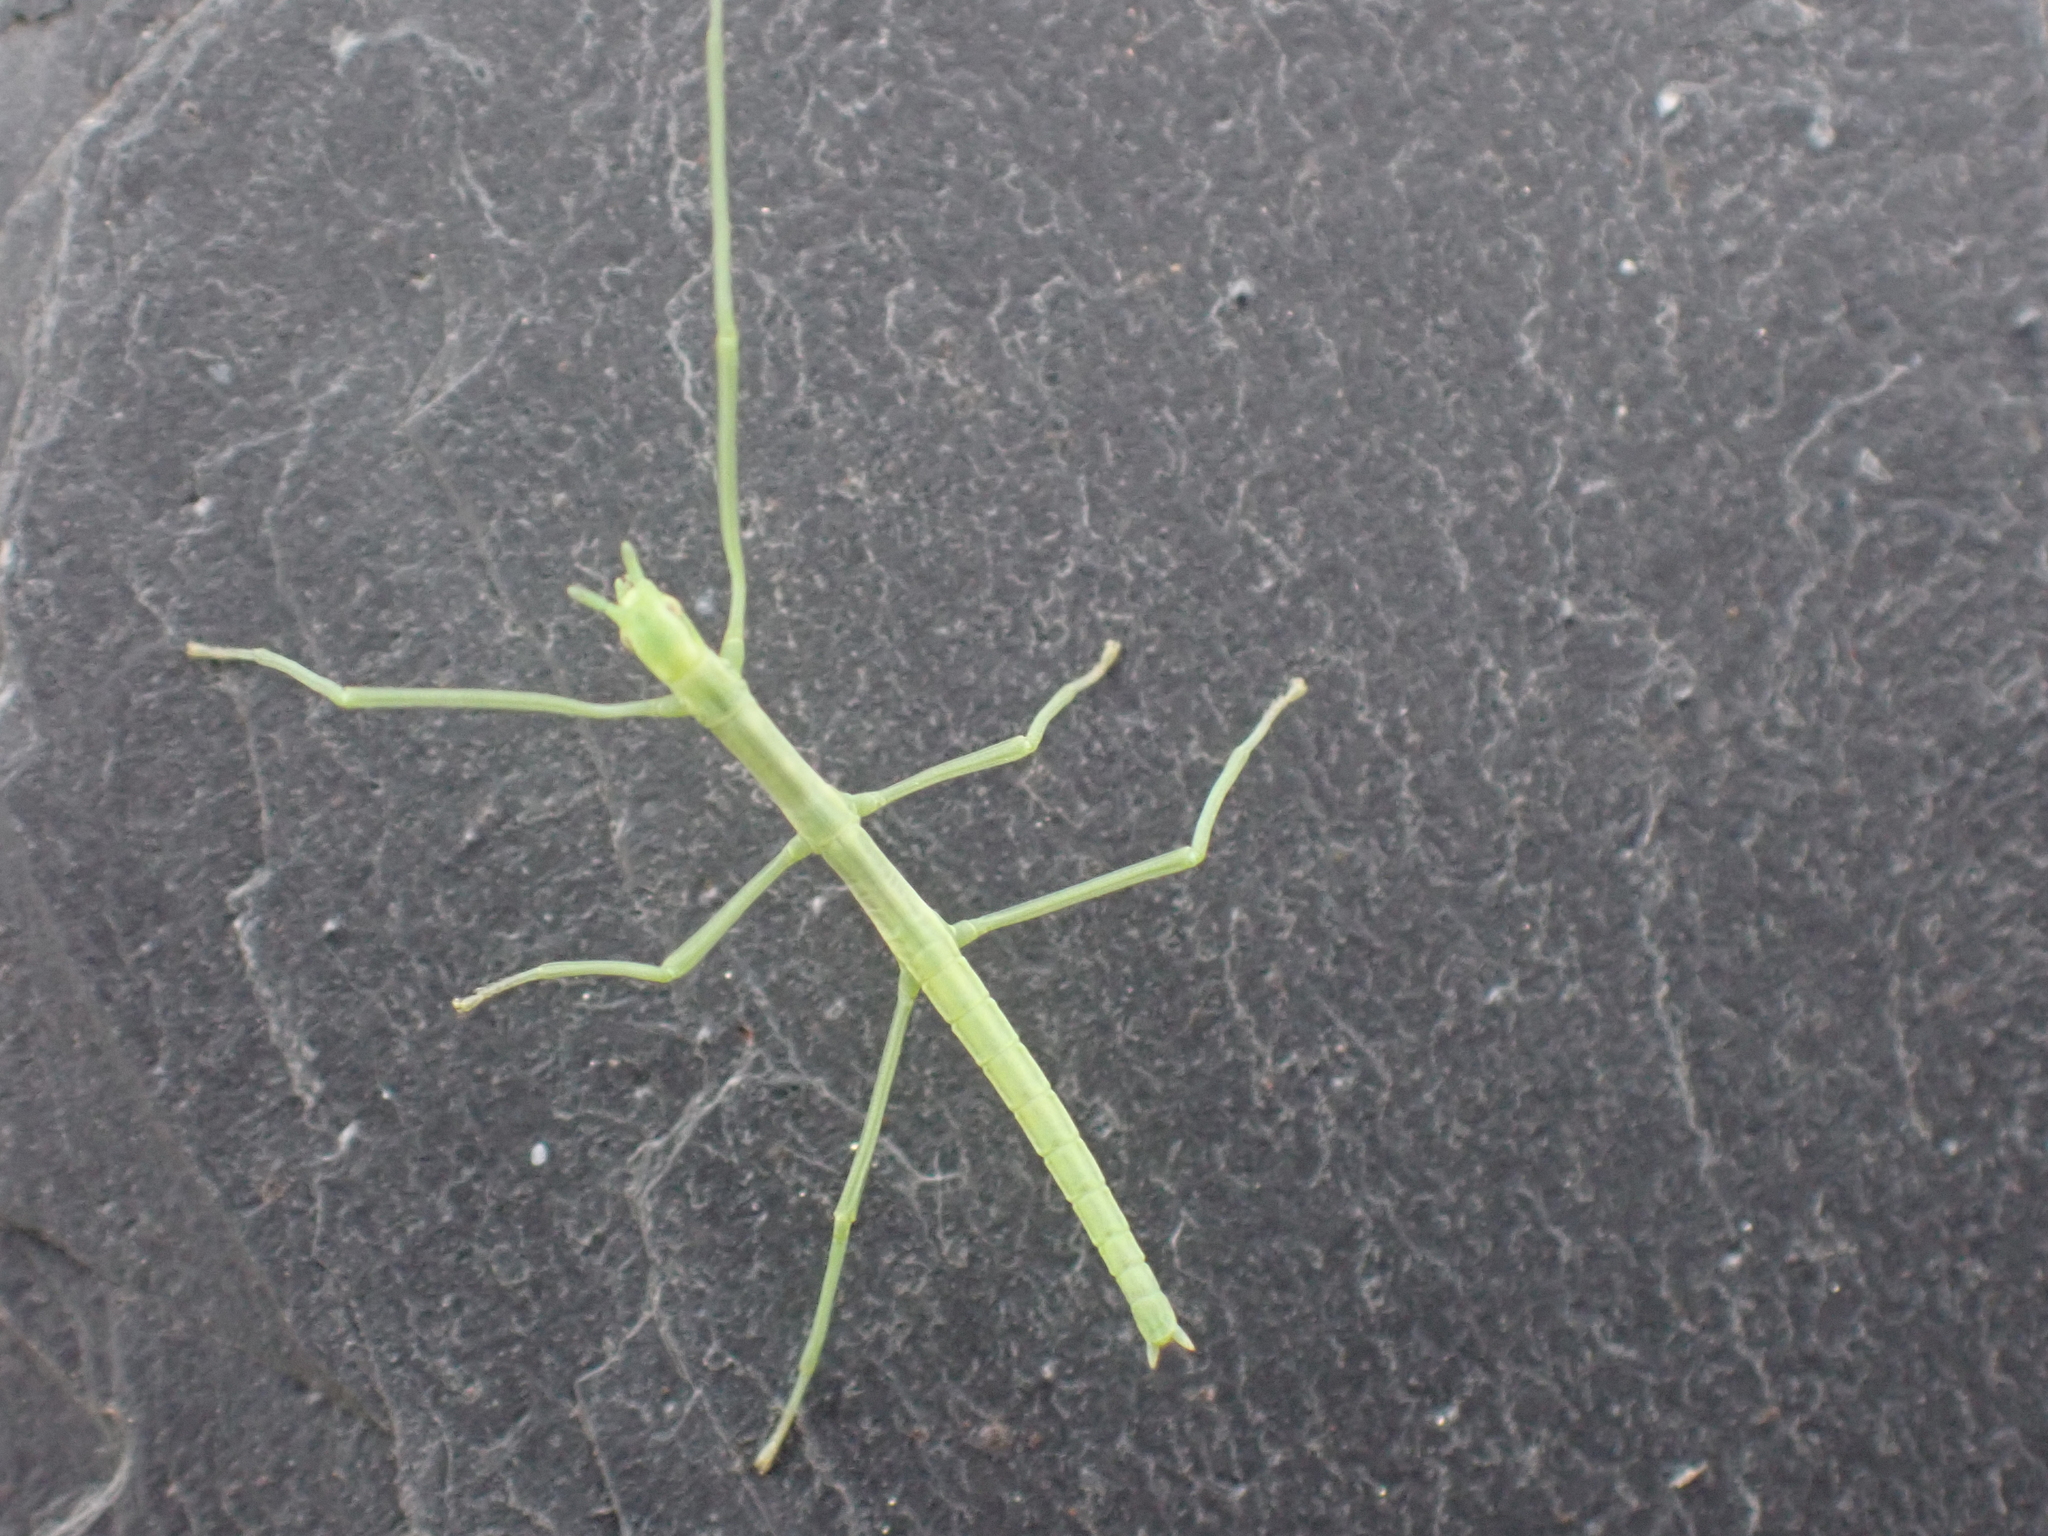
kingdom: Animalia
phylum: Arthropoda
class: Insecta
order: Phasmida
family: Bacillidae
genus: Clonopsis
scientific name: Clonopsis gallica
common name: French stick insect
